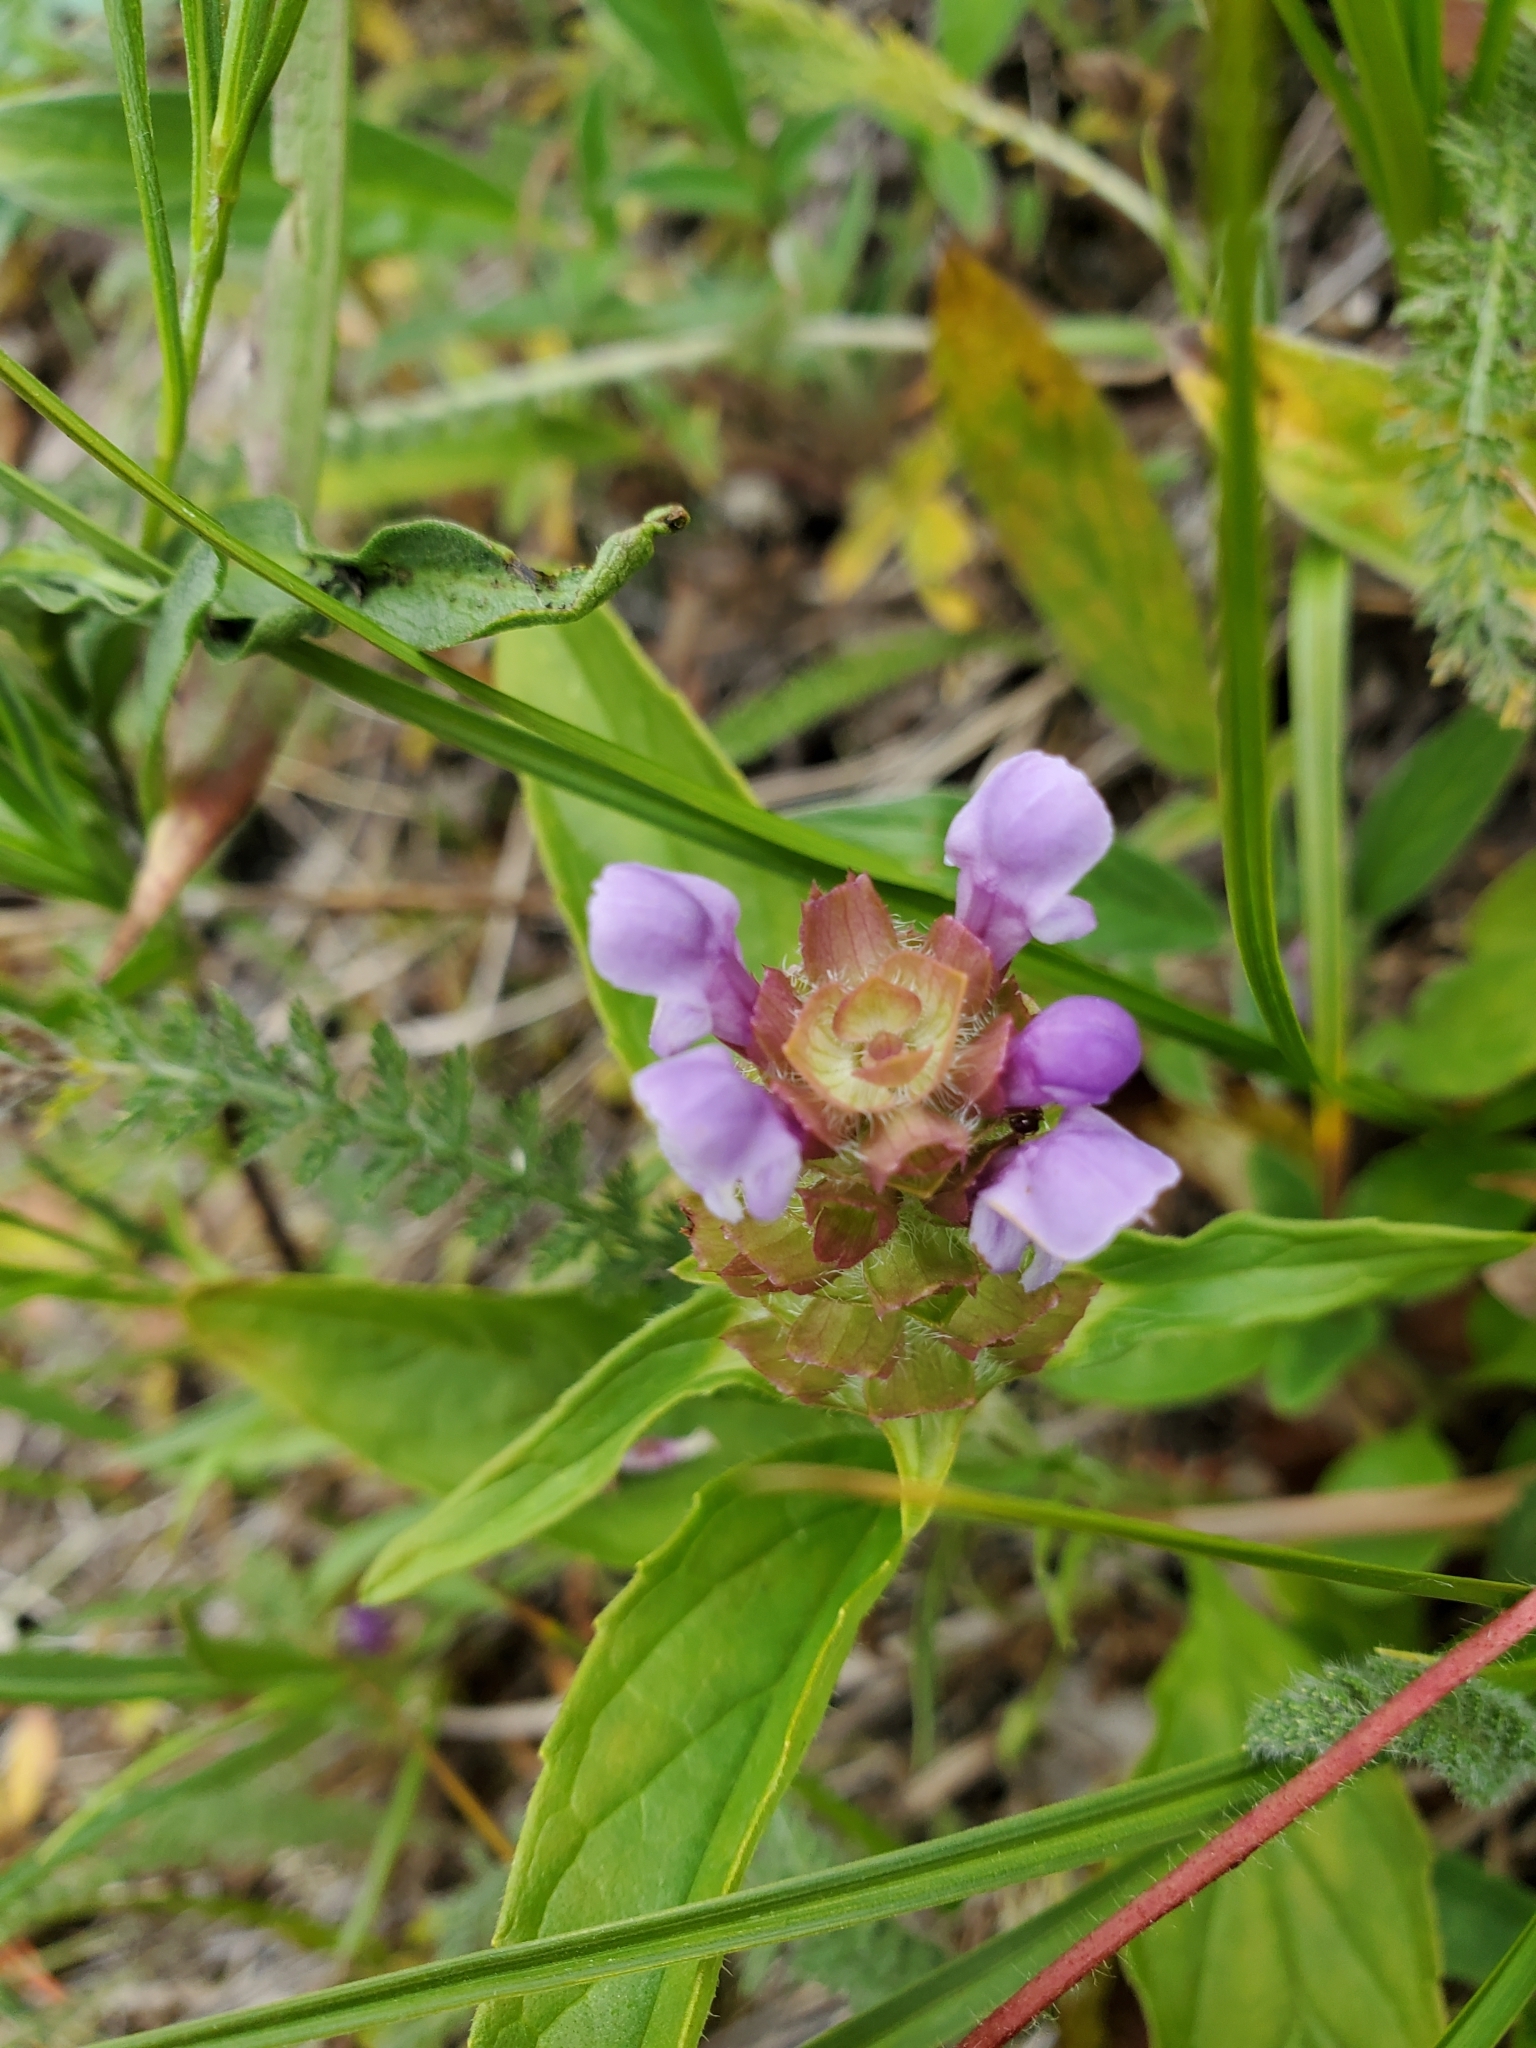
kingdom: Plantae
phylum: Tracheophyta
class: Magnoliopsida
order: Lamiales
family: Lamiaceae
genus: Prunella
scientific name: Prunella vulgaris
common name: Heal-all
